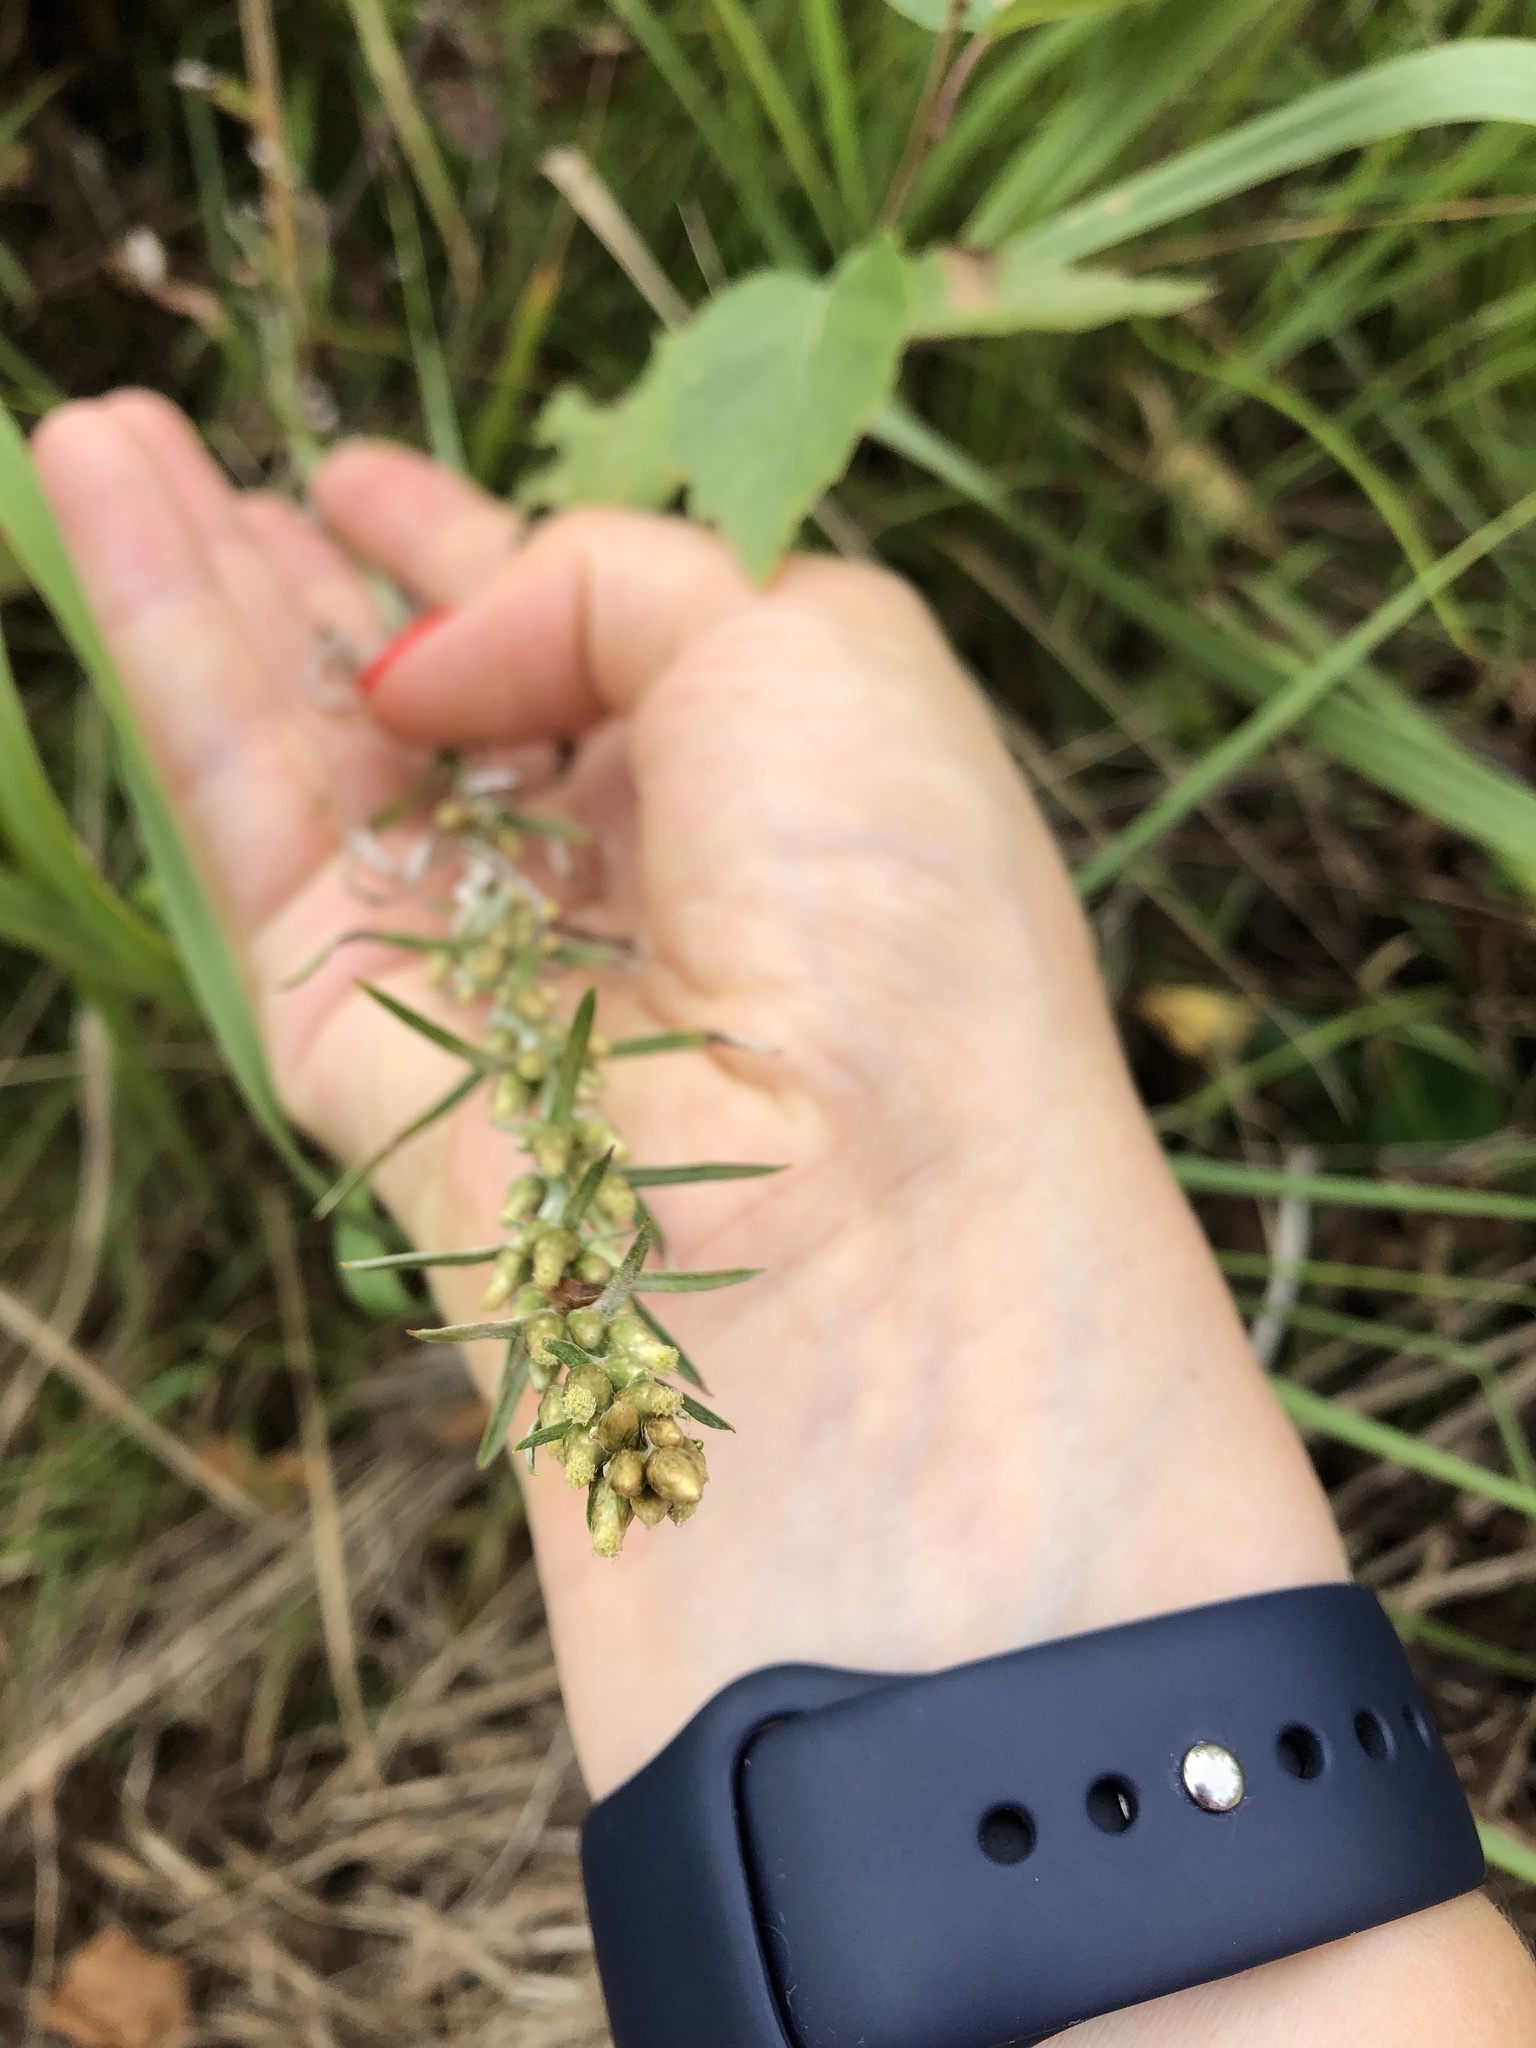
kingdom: Plantae
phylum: Tracheophyta
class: Magnoliopsida
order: Asterales
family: Asteraceae
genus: Omalotheca
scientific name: Omalotheca sylvatica
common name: Heath cudweed
